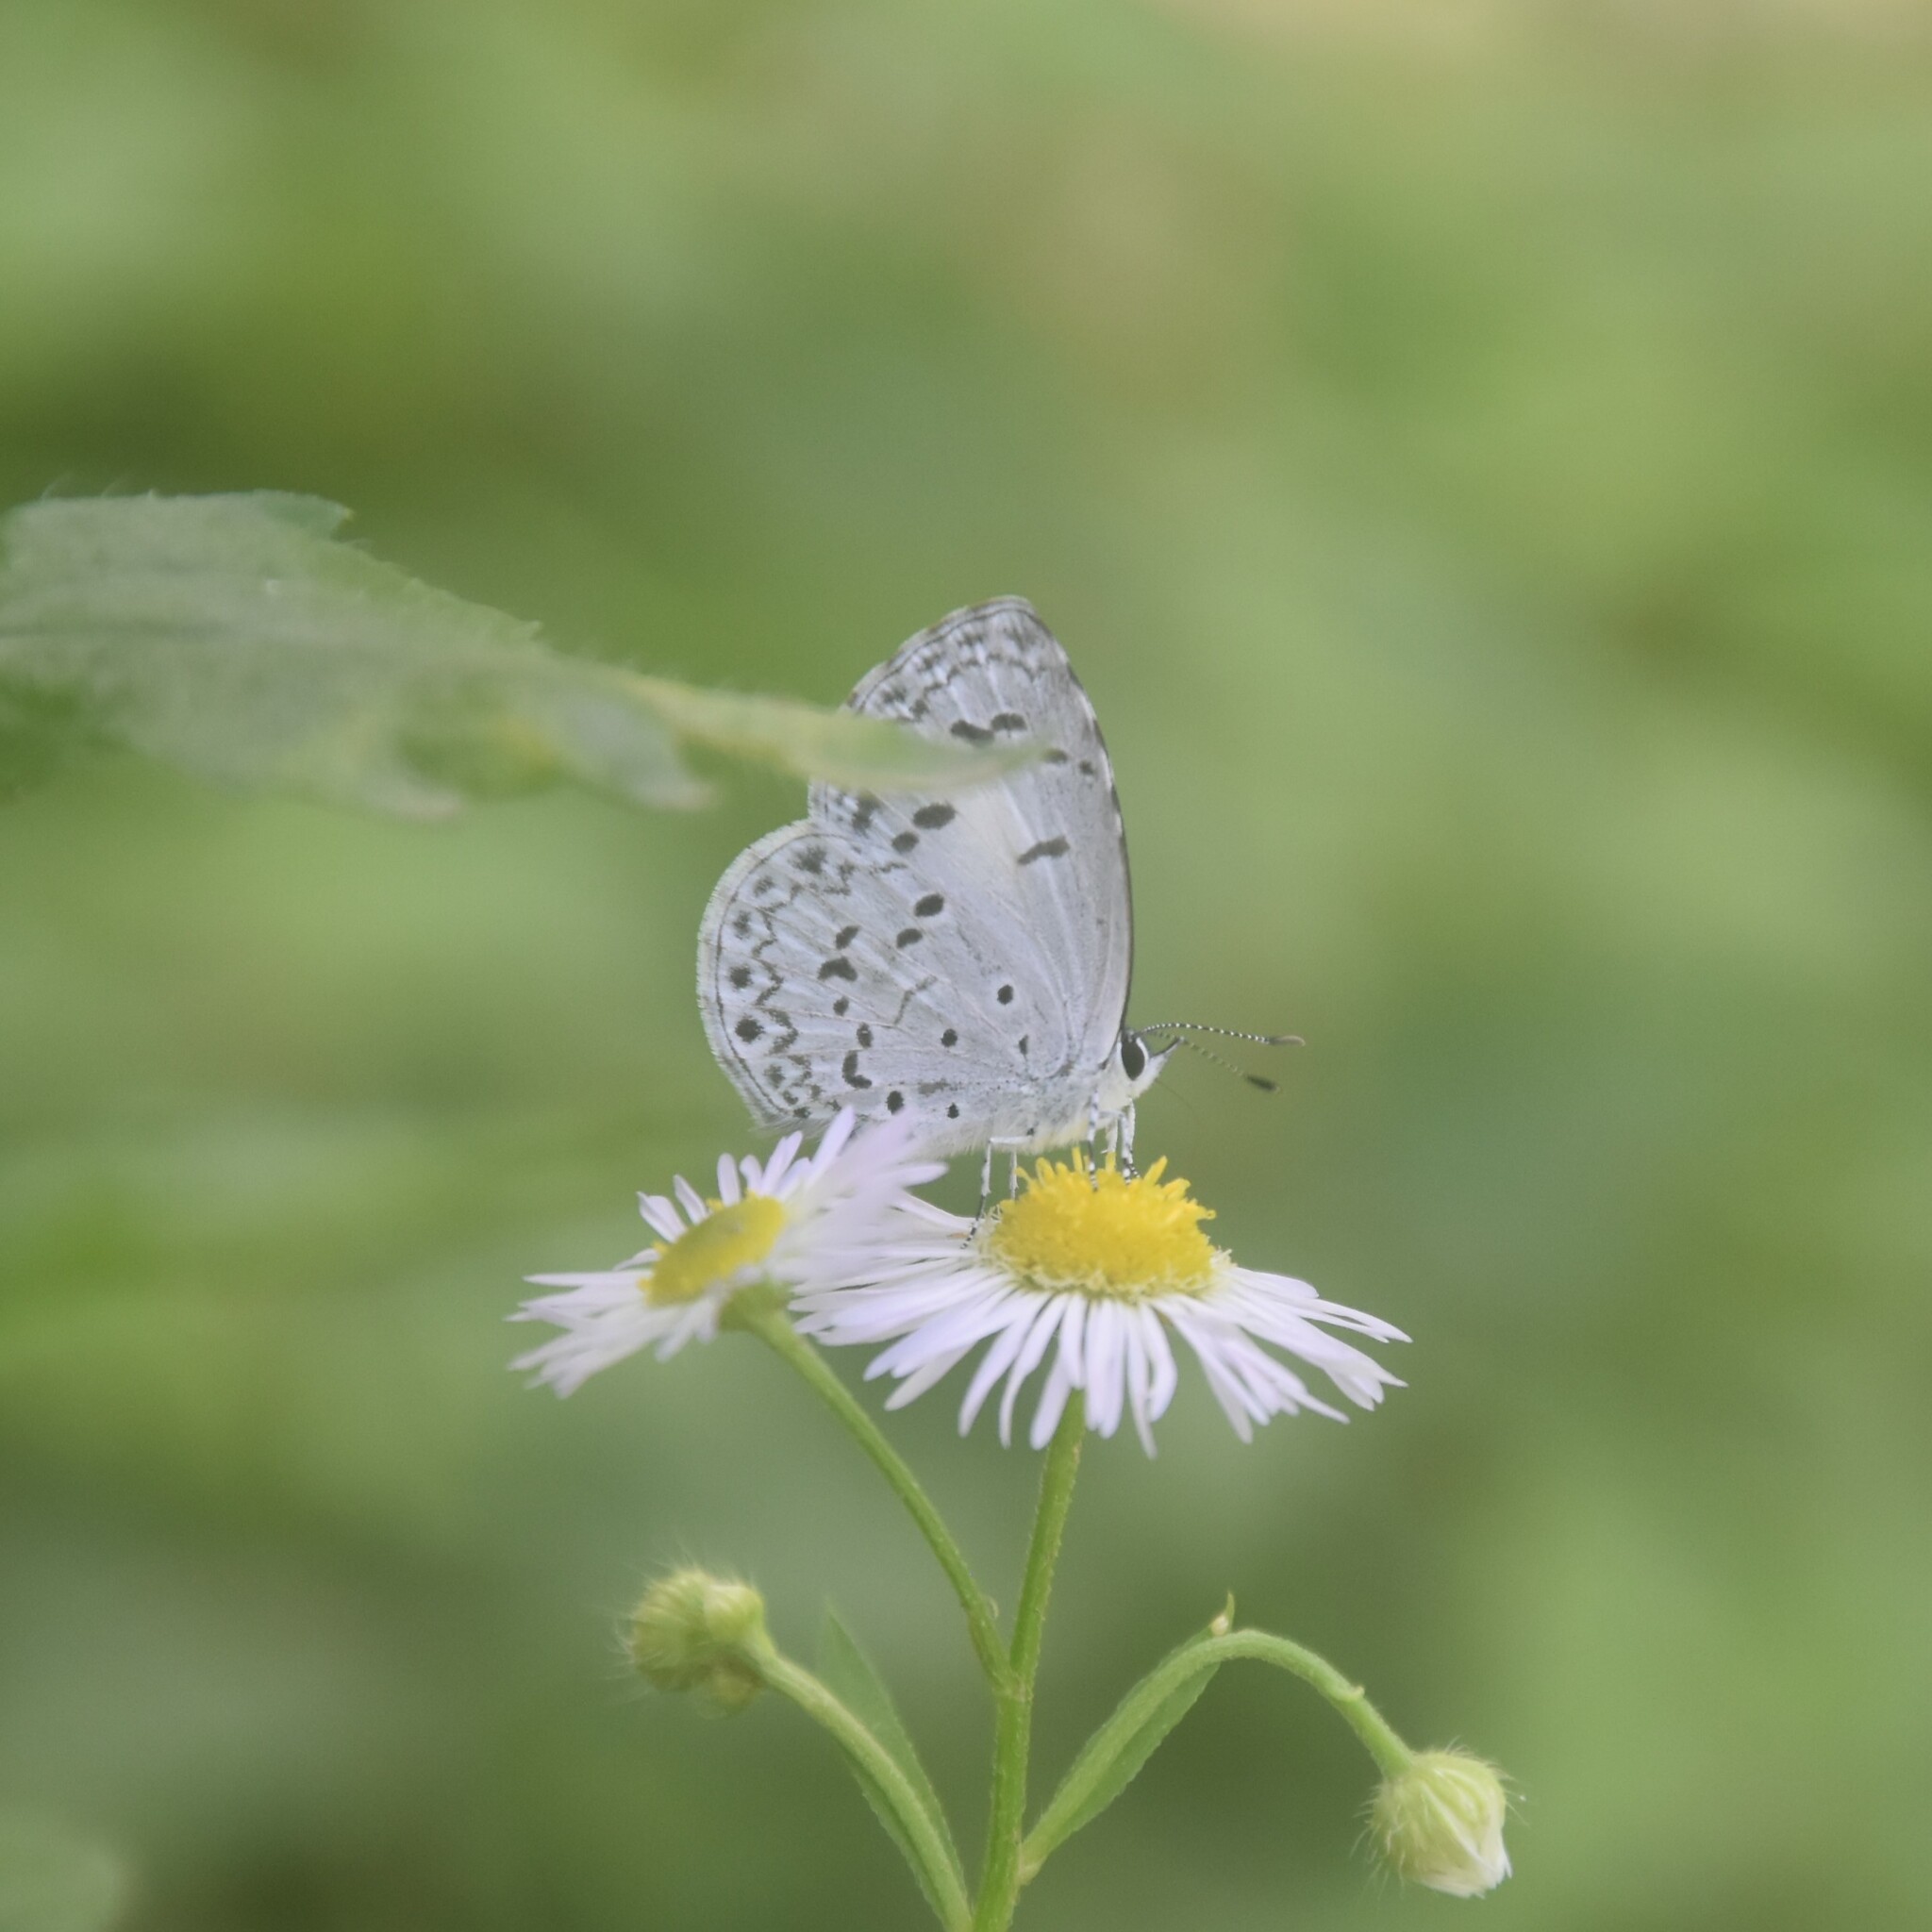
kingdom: Animalia
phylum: Arthropoda
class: Insecta
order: Lepidoptera
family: Lycaenidae
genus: Acytolepis
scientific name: Acytolepis puspa
